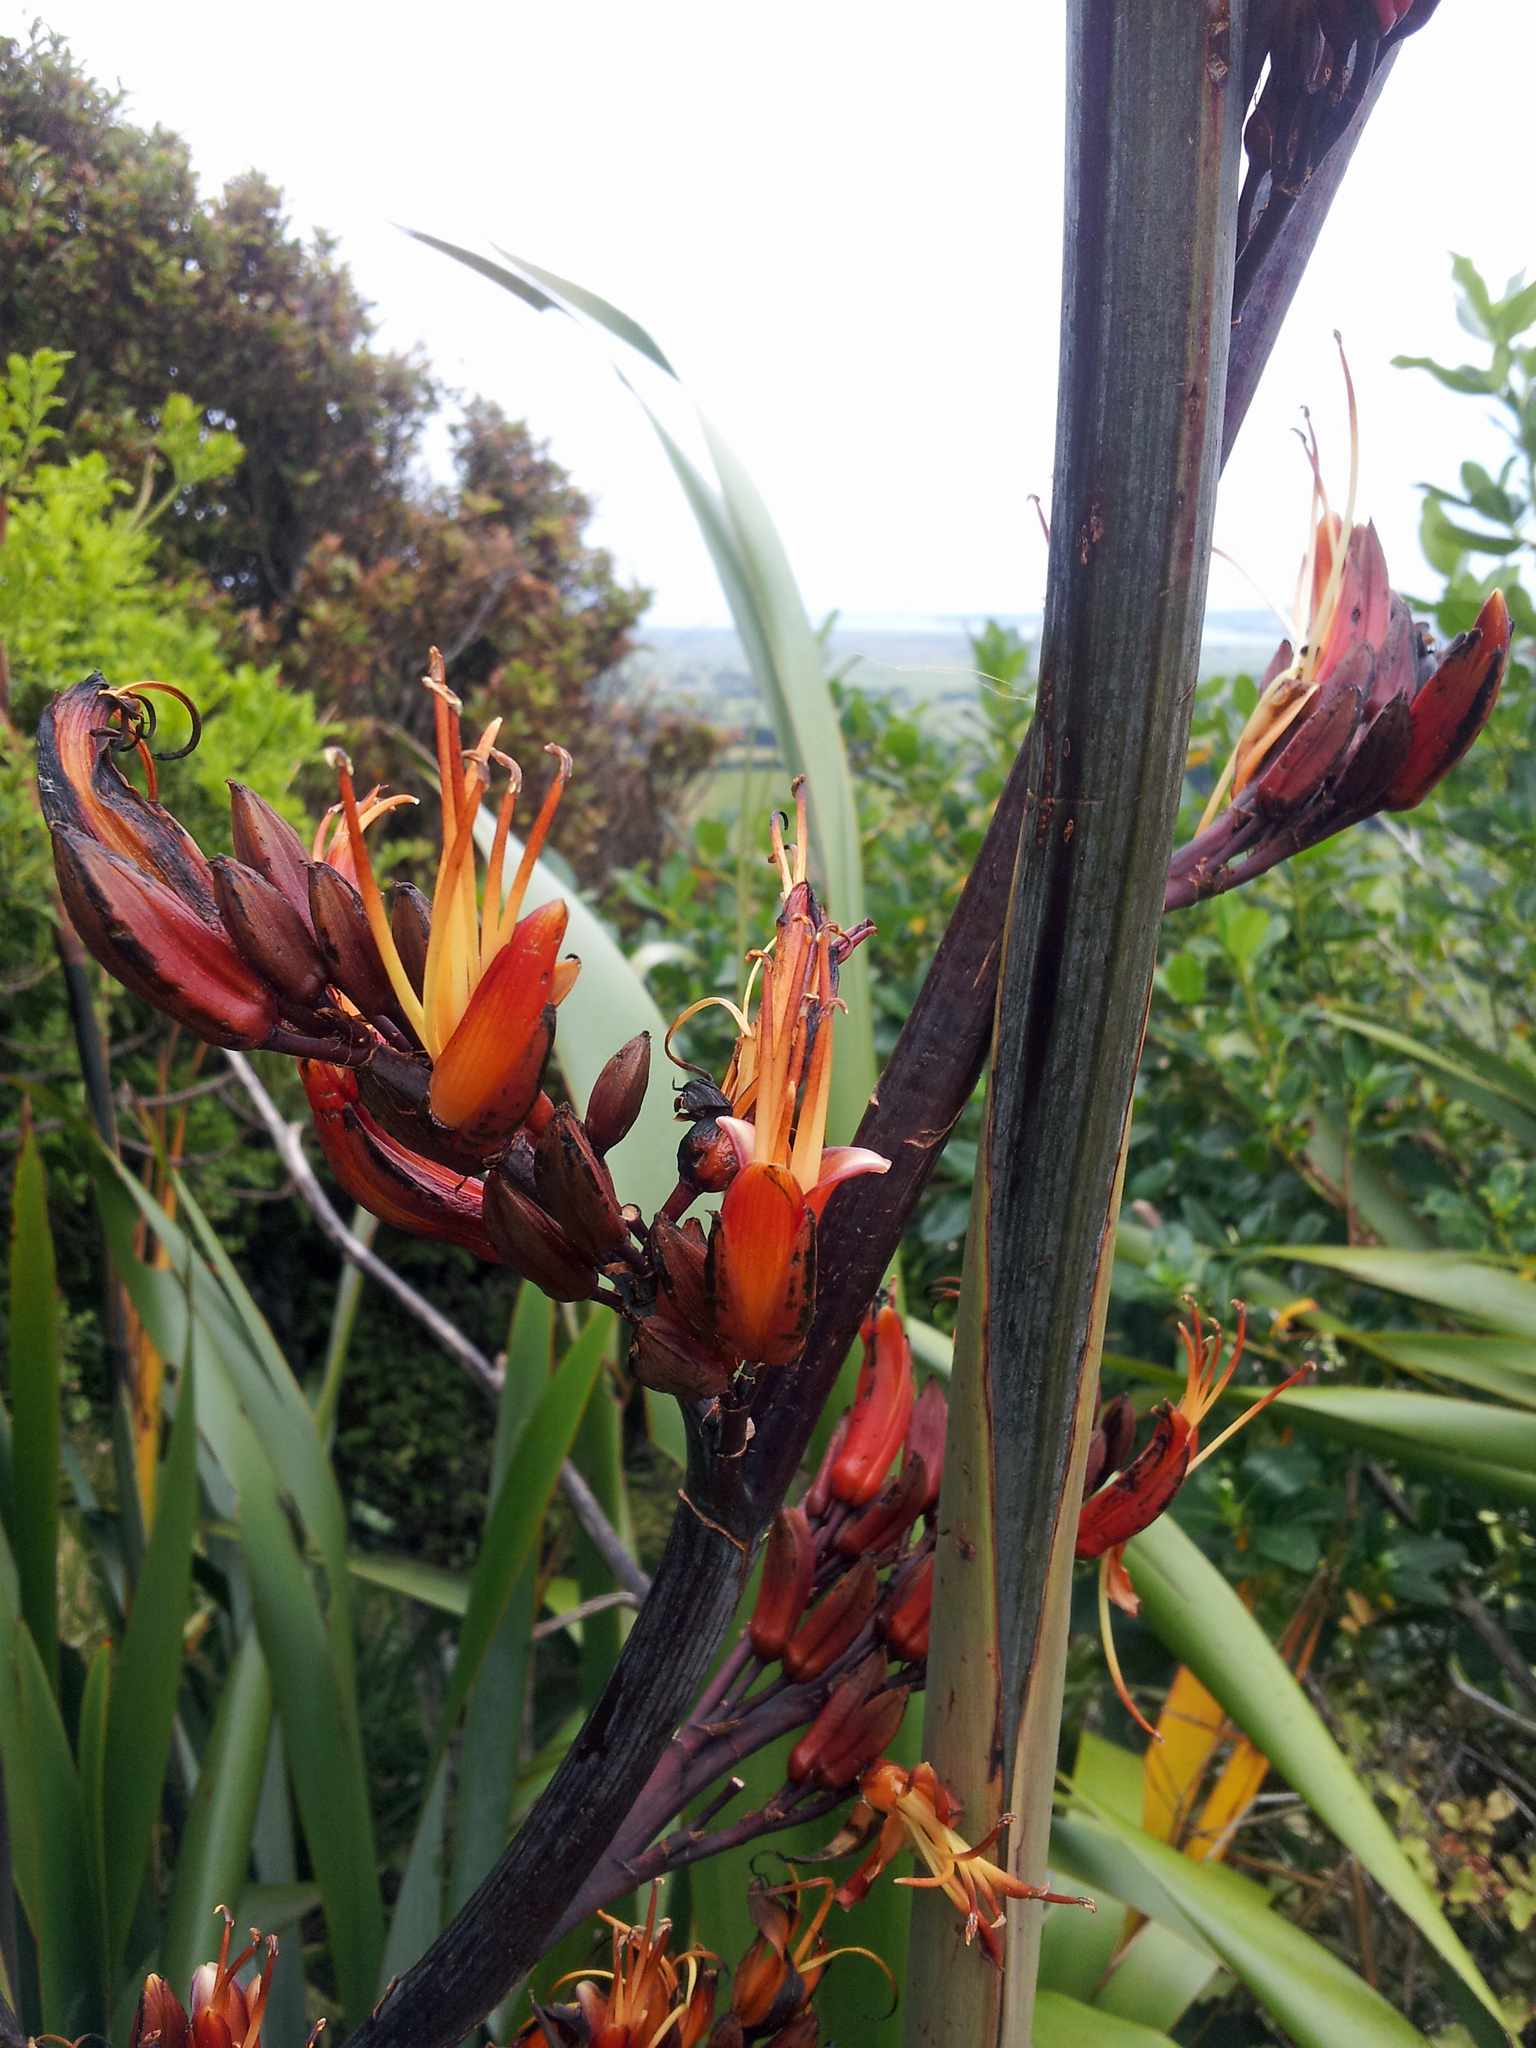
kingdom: Plantae
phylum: Tracheophyta
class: Liliopsida
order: Asparagales
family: Asphodelaceae
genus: Phormium
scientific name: Phormium tenax
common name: New zealand flax
